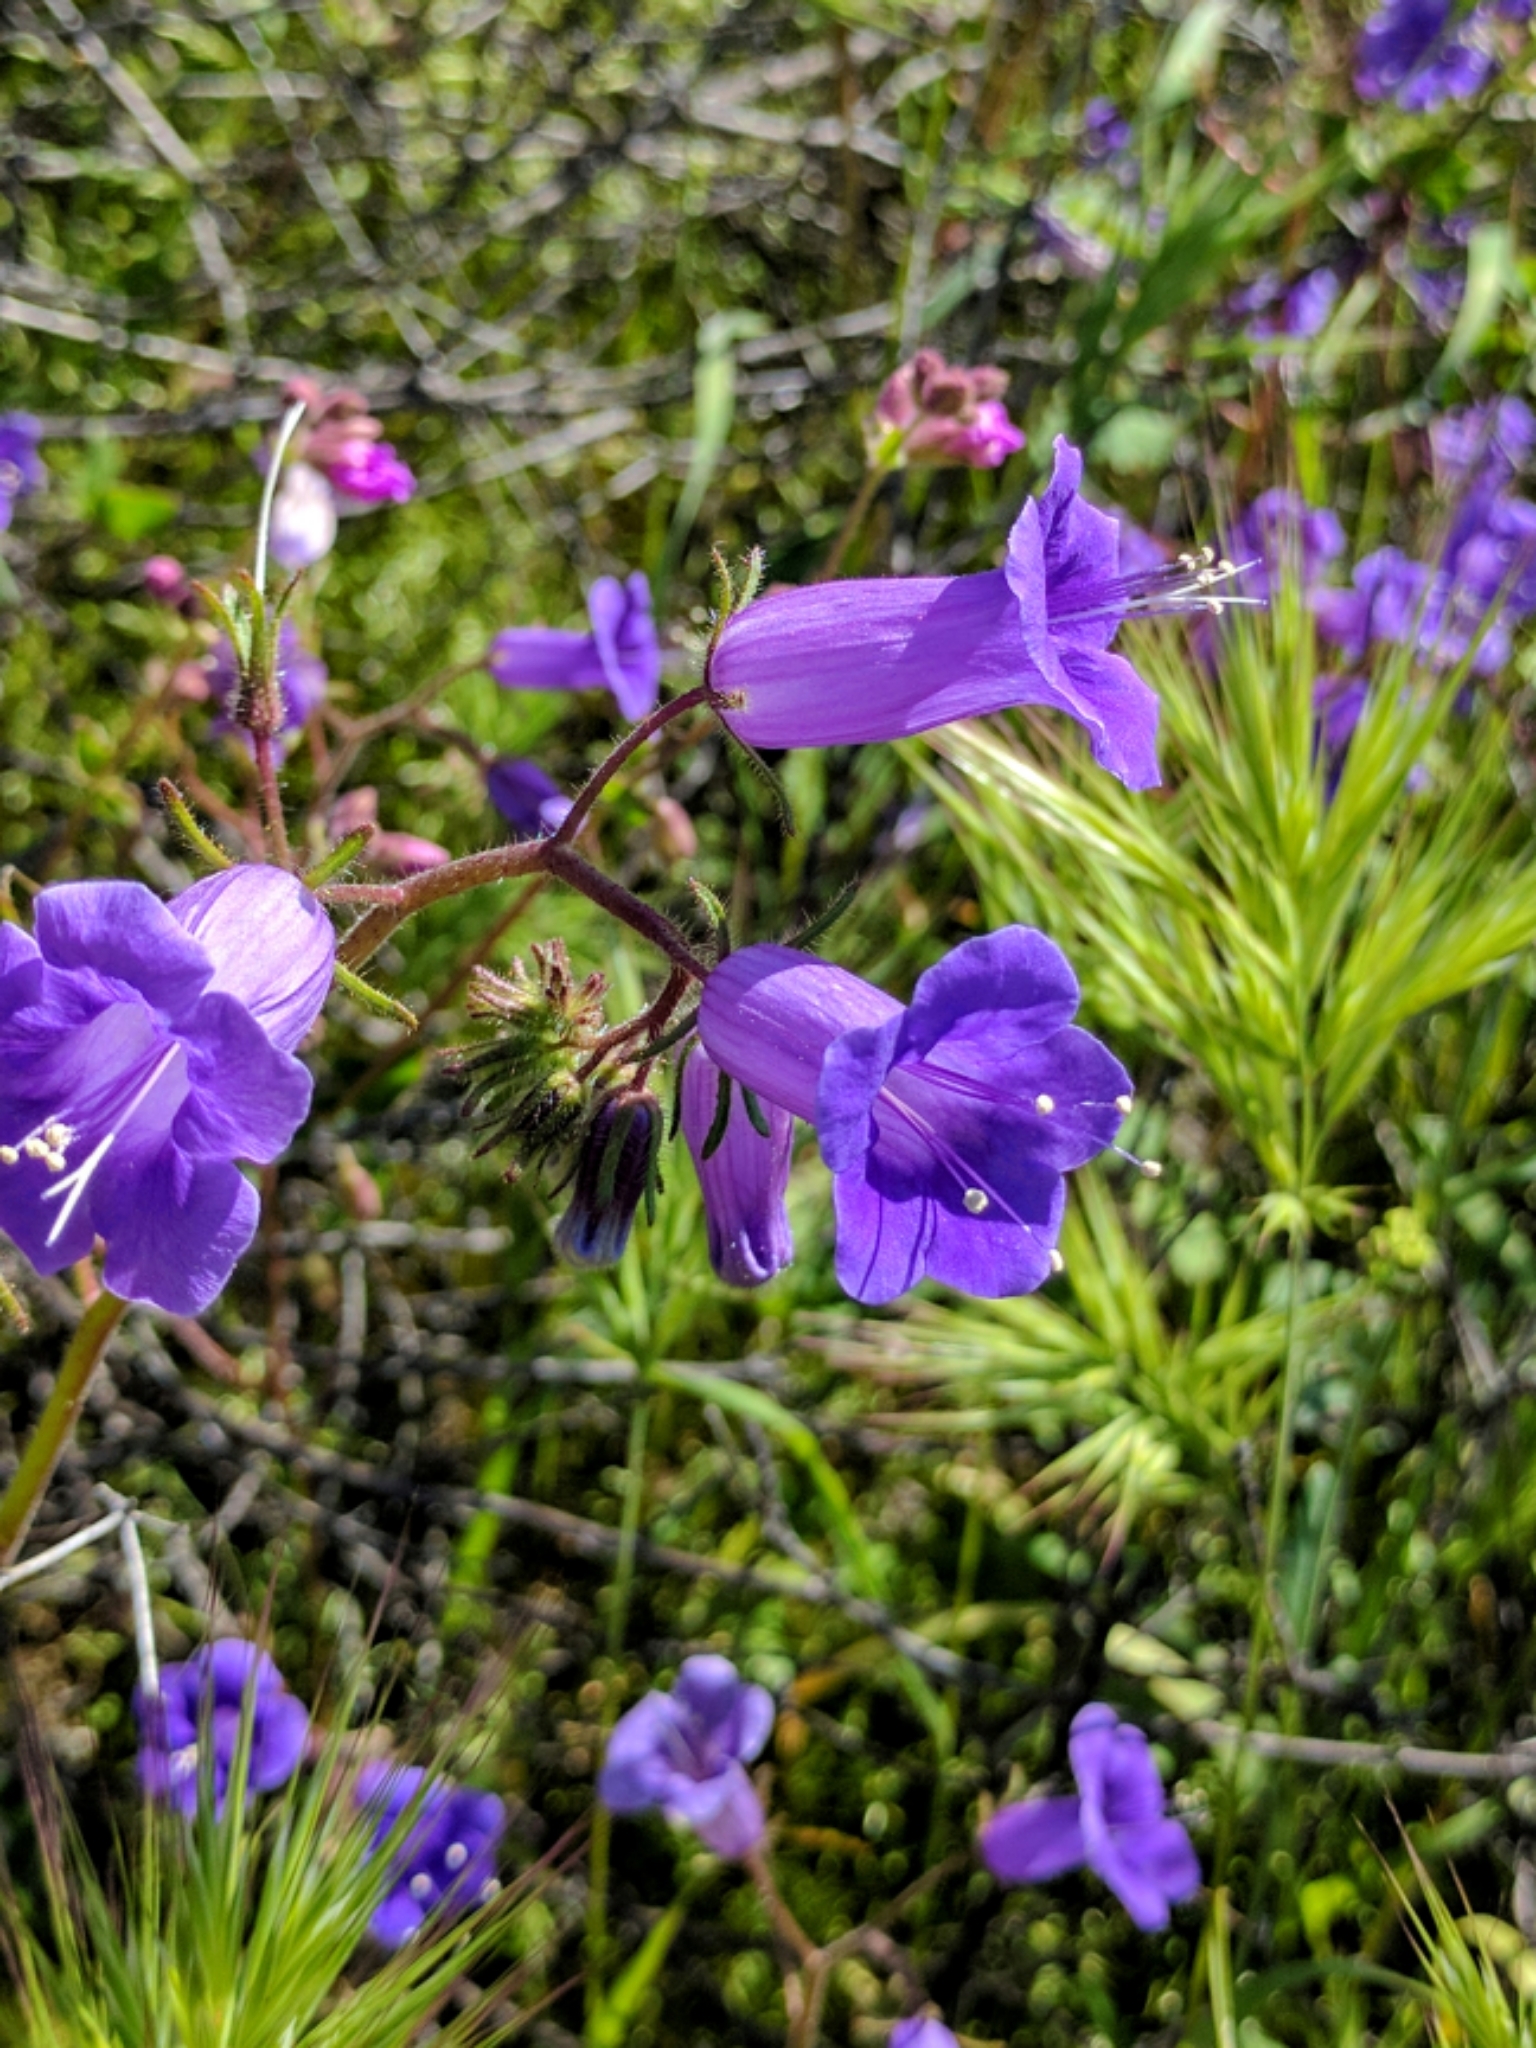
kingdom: Plantae
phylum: Tracheophyta
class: Magnoliopsida
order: Boraginales
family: Hydrophyllaceae
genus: Phacelia
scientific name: Phacelia minor
